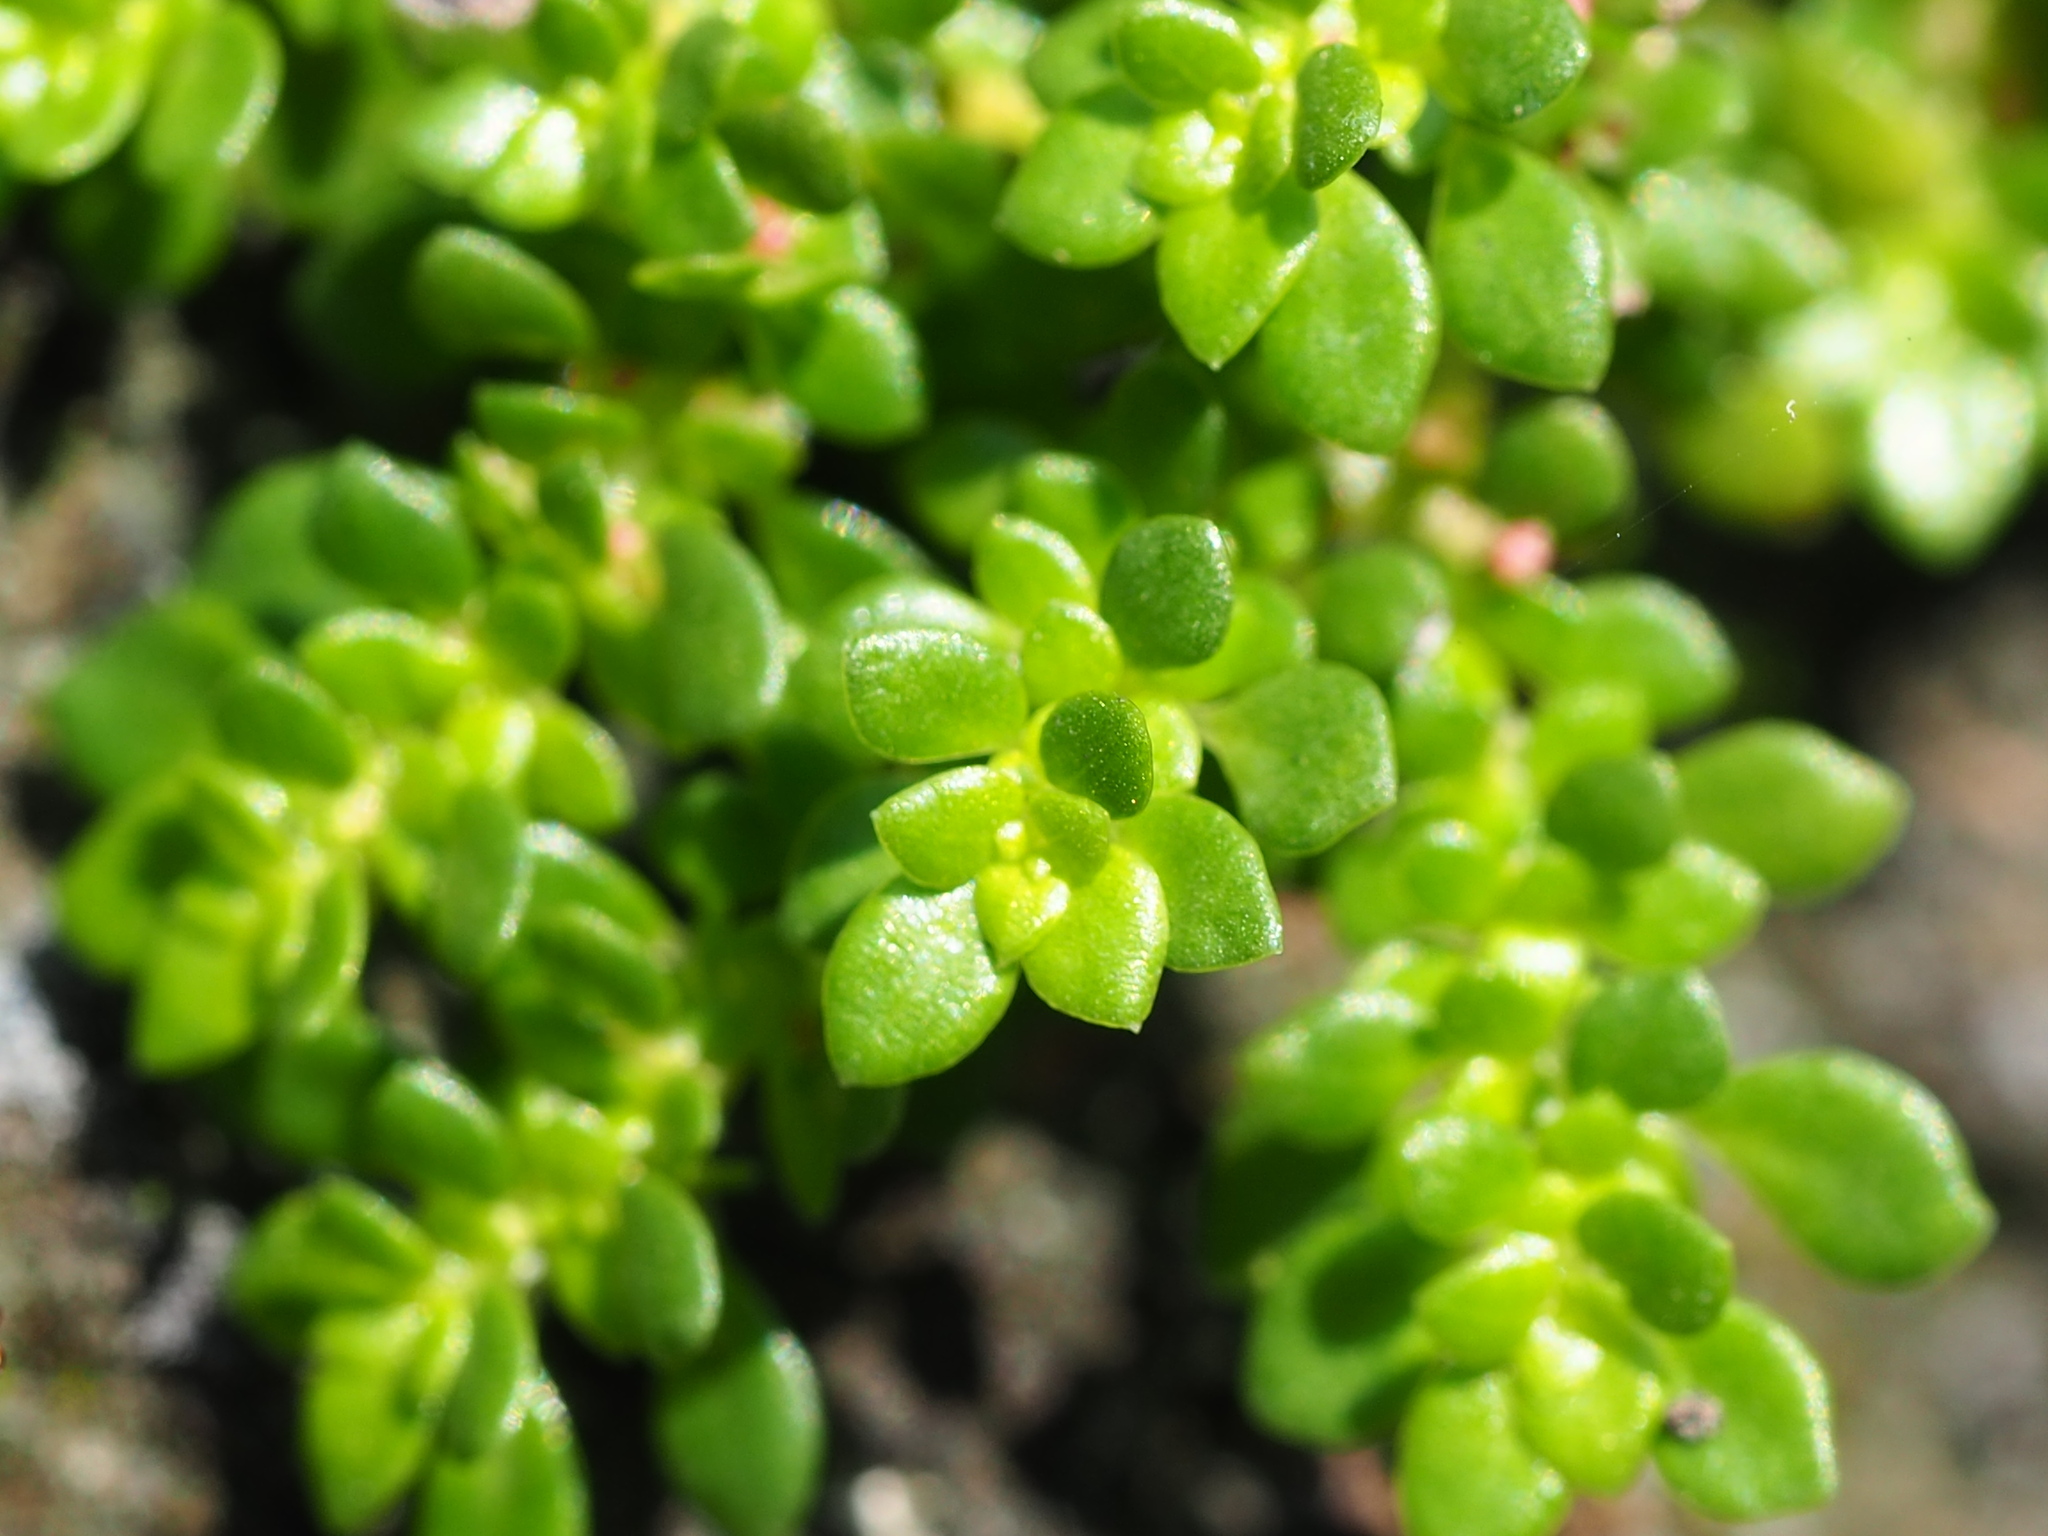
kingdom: Plantae
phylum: Tracheophyta
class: Magnoliopsida
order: Rosales
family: Urticaceae
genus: Pilea
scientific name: Pilea microphylla
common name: Artillery-plant
